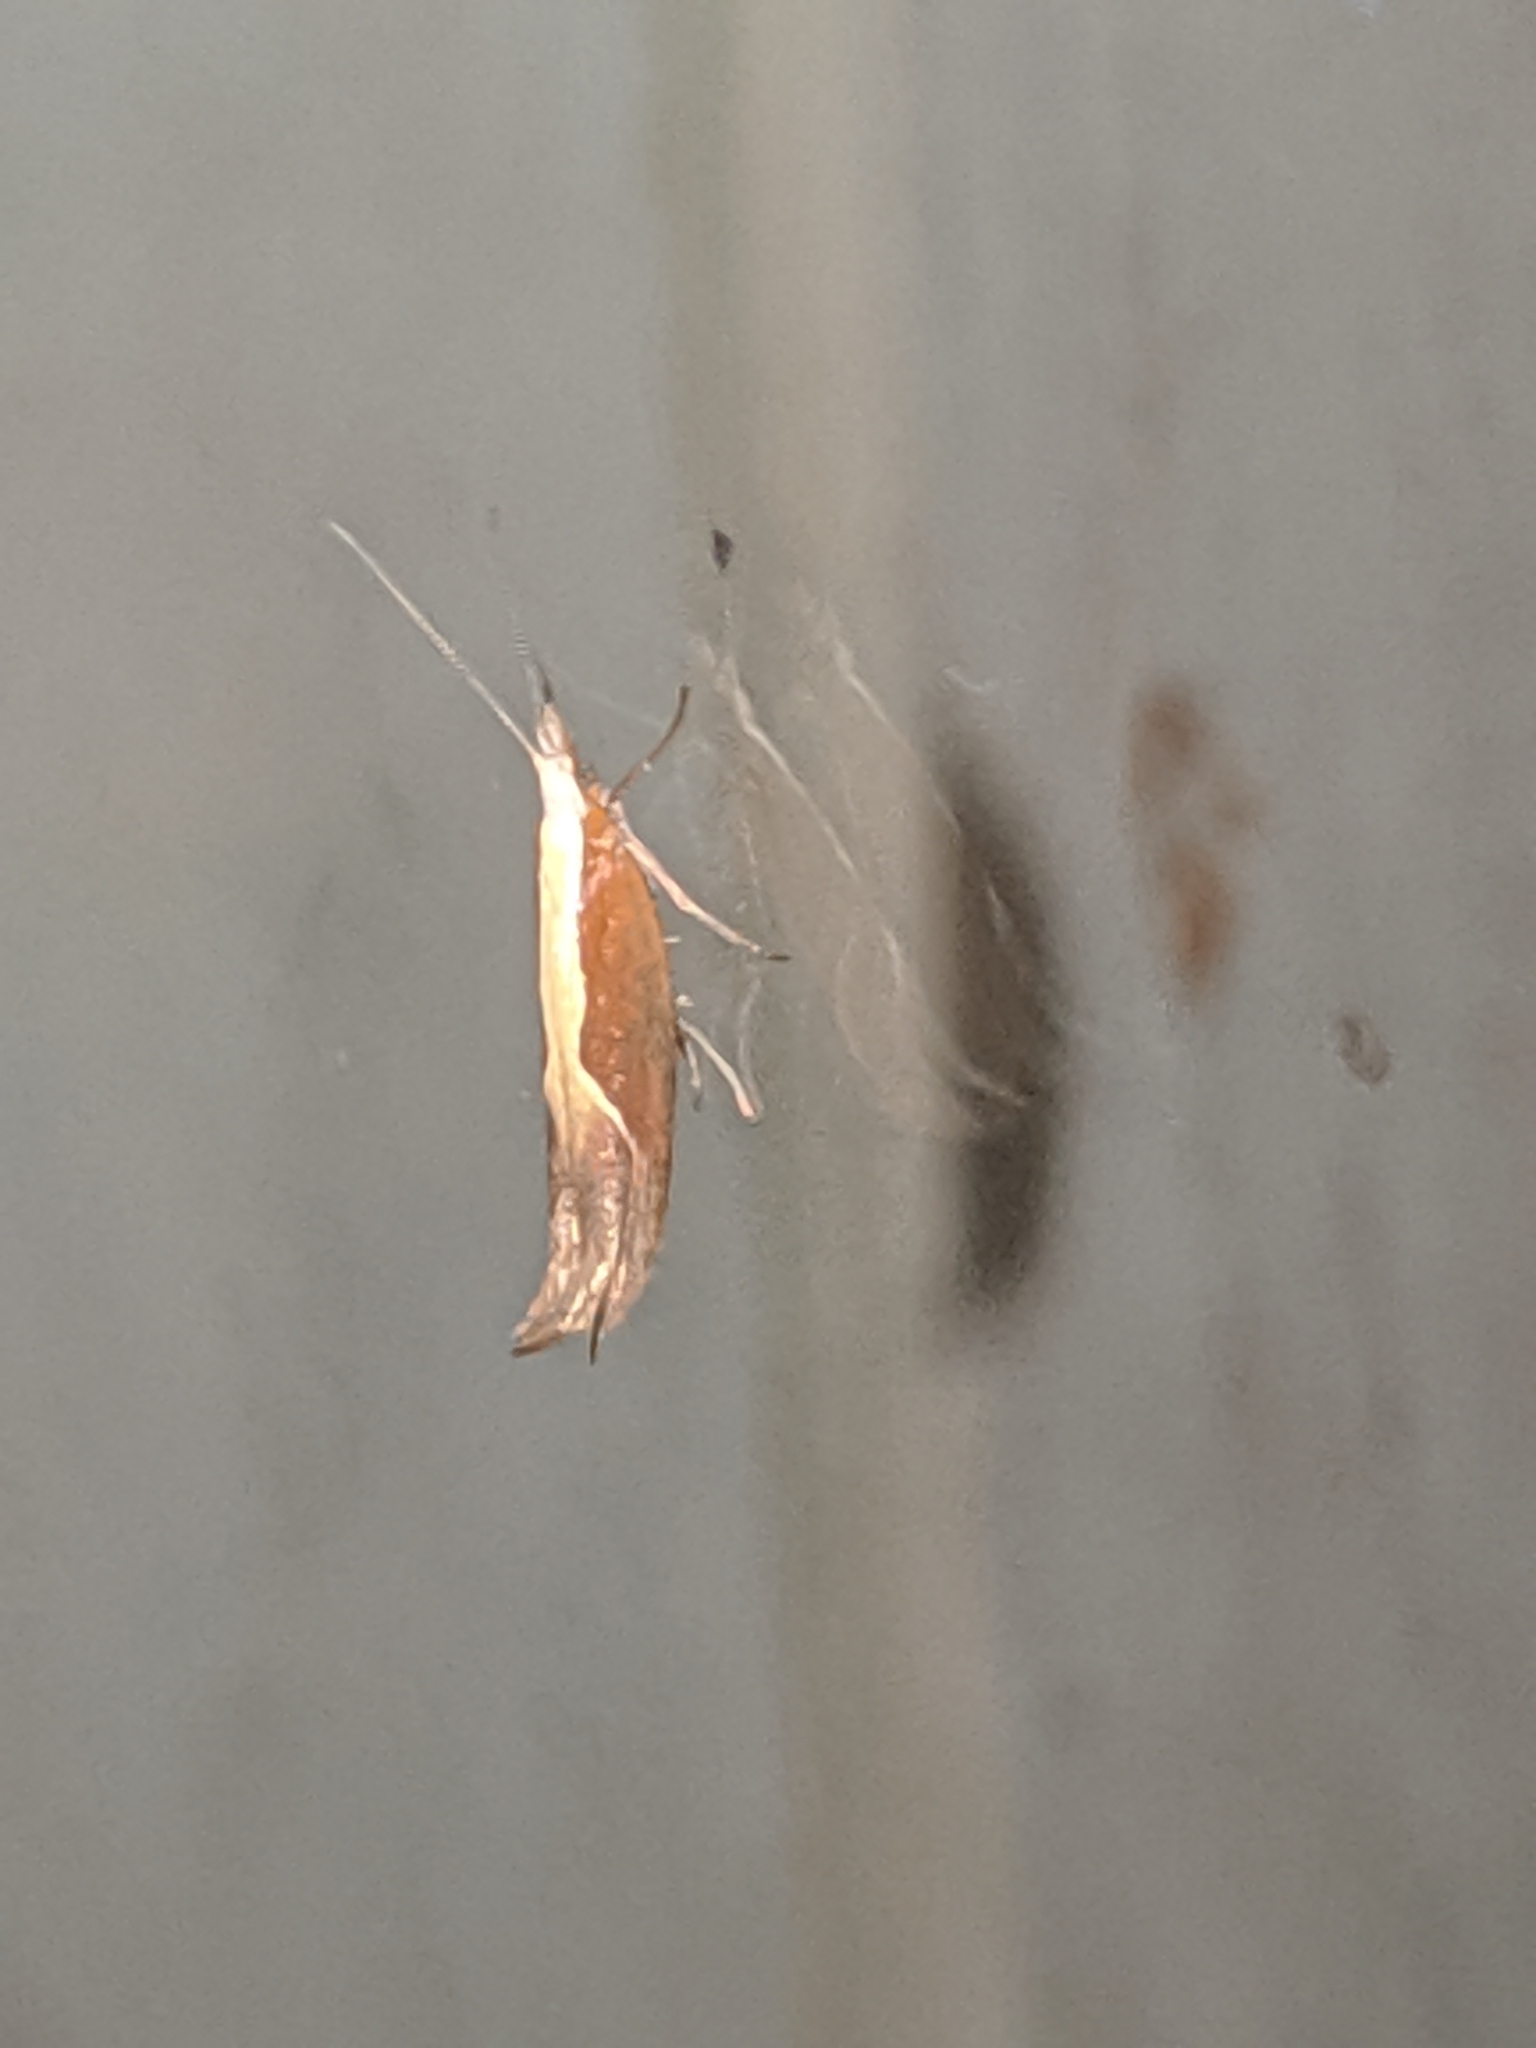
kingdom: Animalia
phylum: Arthropoda
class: Insecta
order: Lepidoptera
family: Ypsolophidae
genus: Ypsolopha
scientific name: Ypsolopha dentella
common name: Honeysuckle moth
